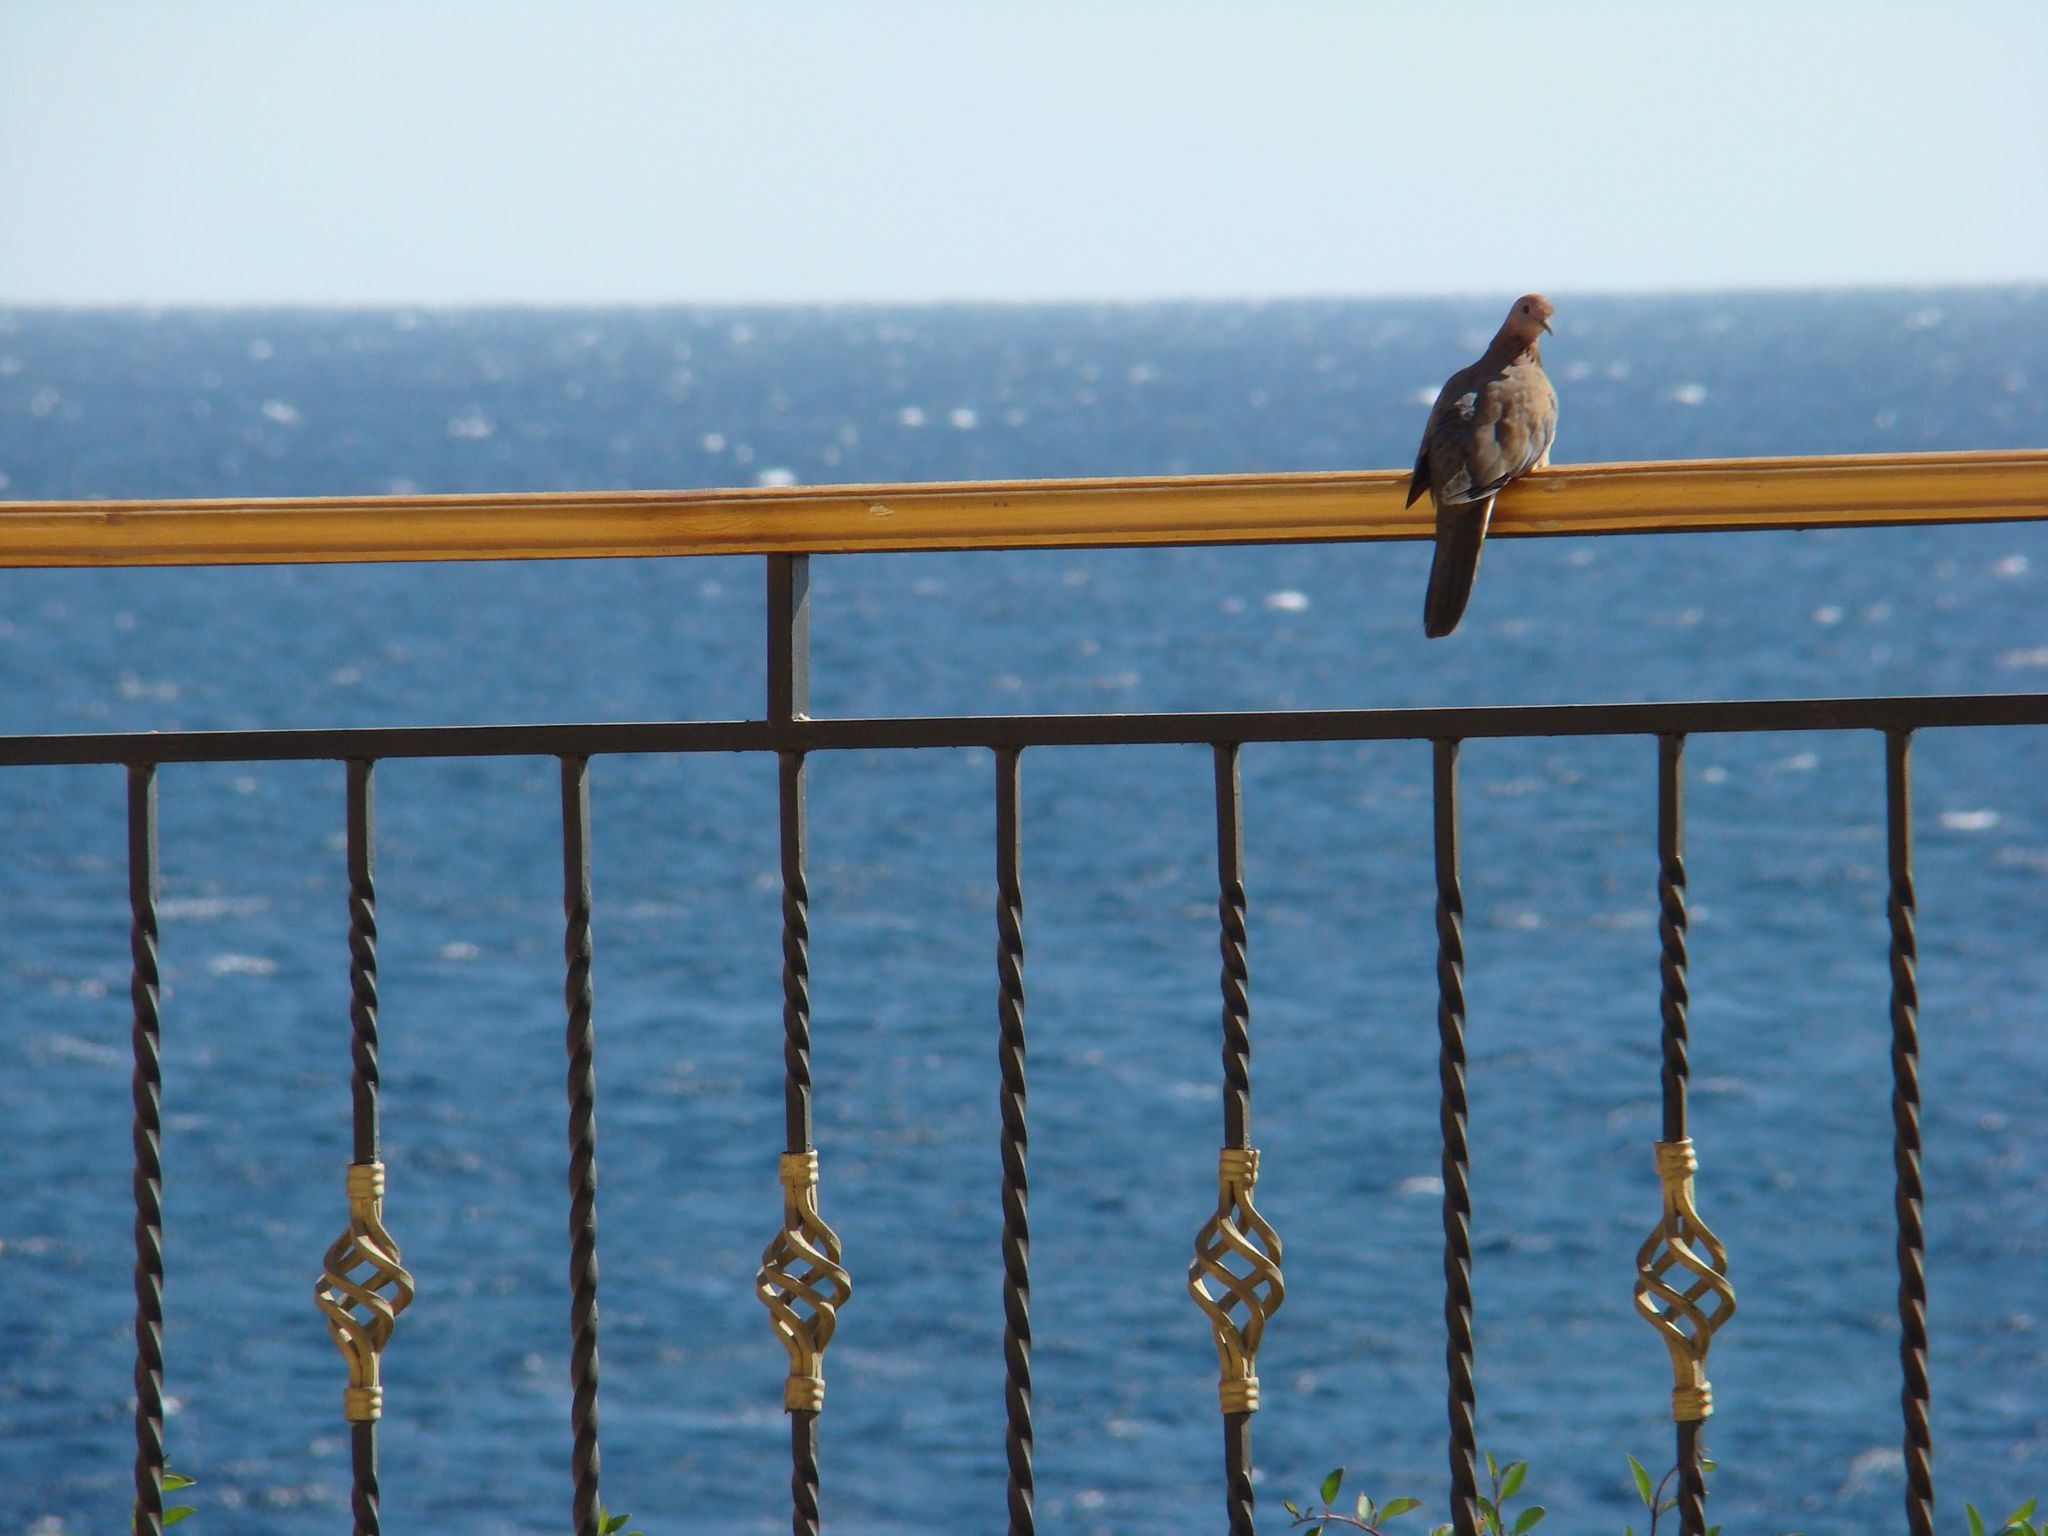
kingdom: Animalia
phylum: Chordata
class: Aves
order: Columbiformes
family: Columbidae
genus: Spilopelia
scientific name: Spilopelia senegalensis
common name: Laughing dove
